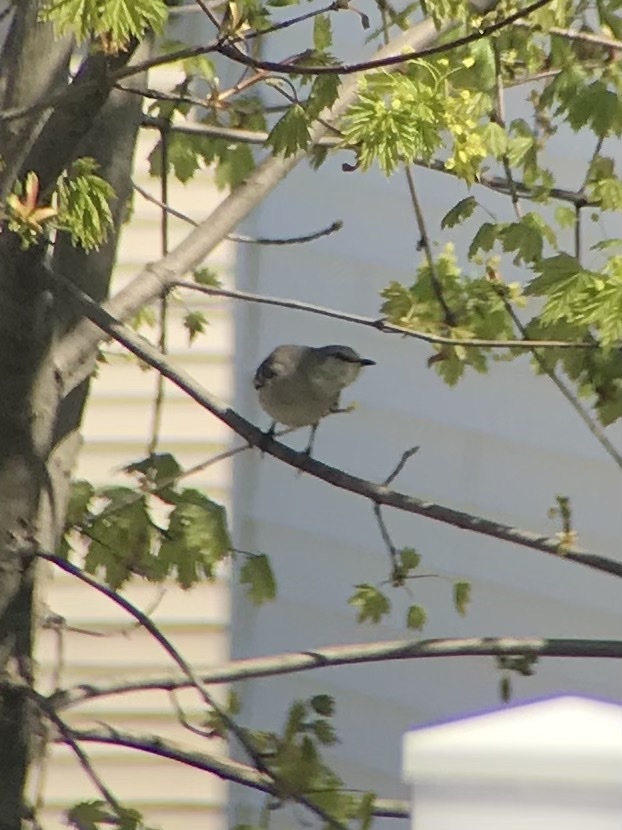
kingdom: Animalia
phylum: Chordata
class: Aves
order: Passeriformes
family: Mimidae
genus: Mimus
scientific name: Mimus polyglottos
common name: Northern mockingbird
